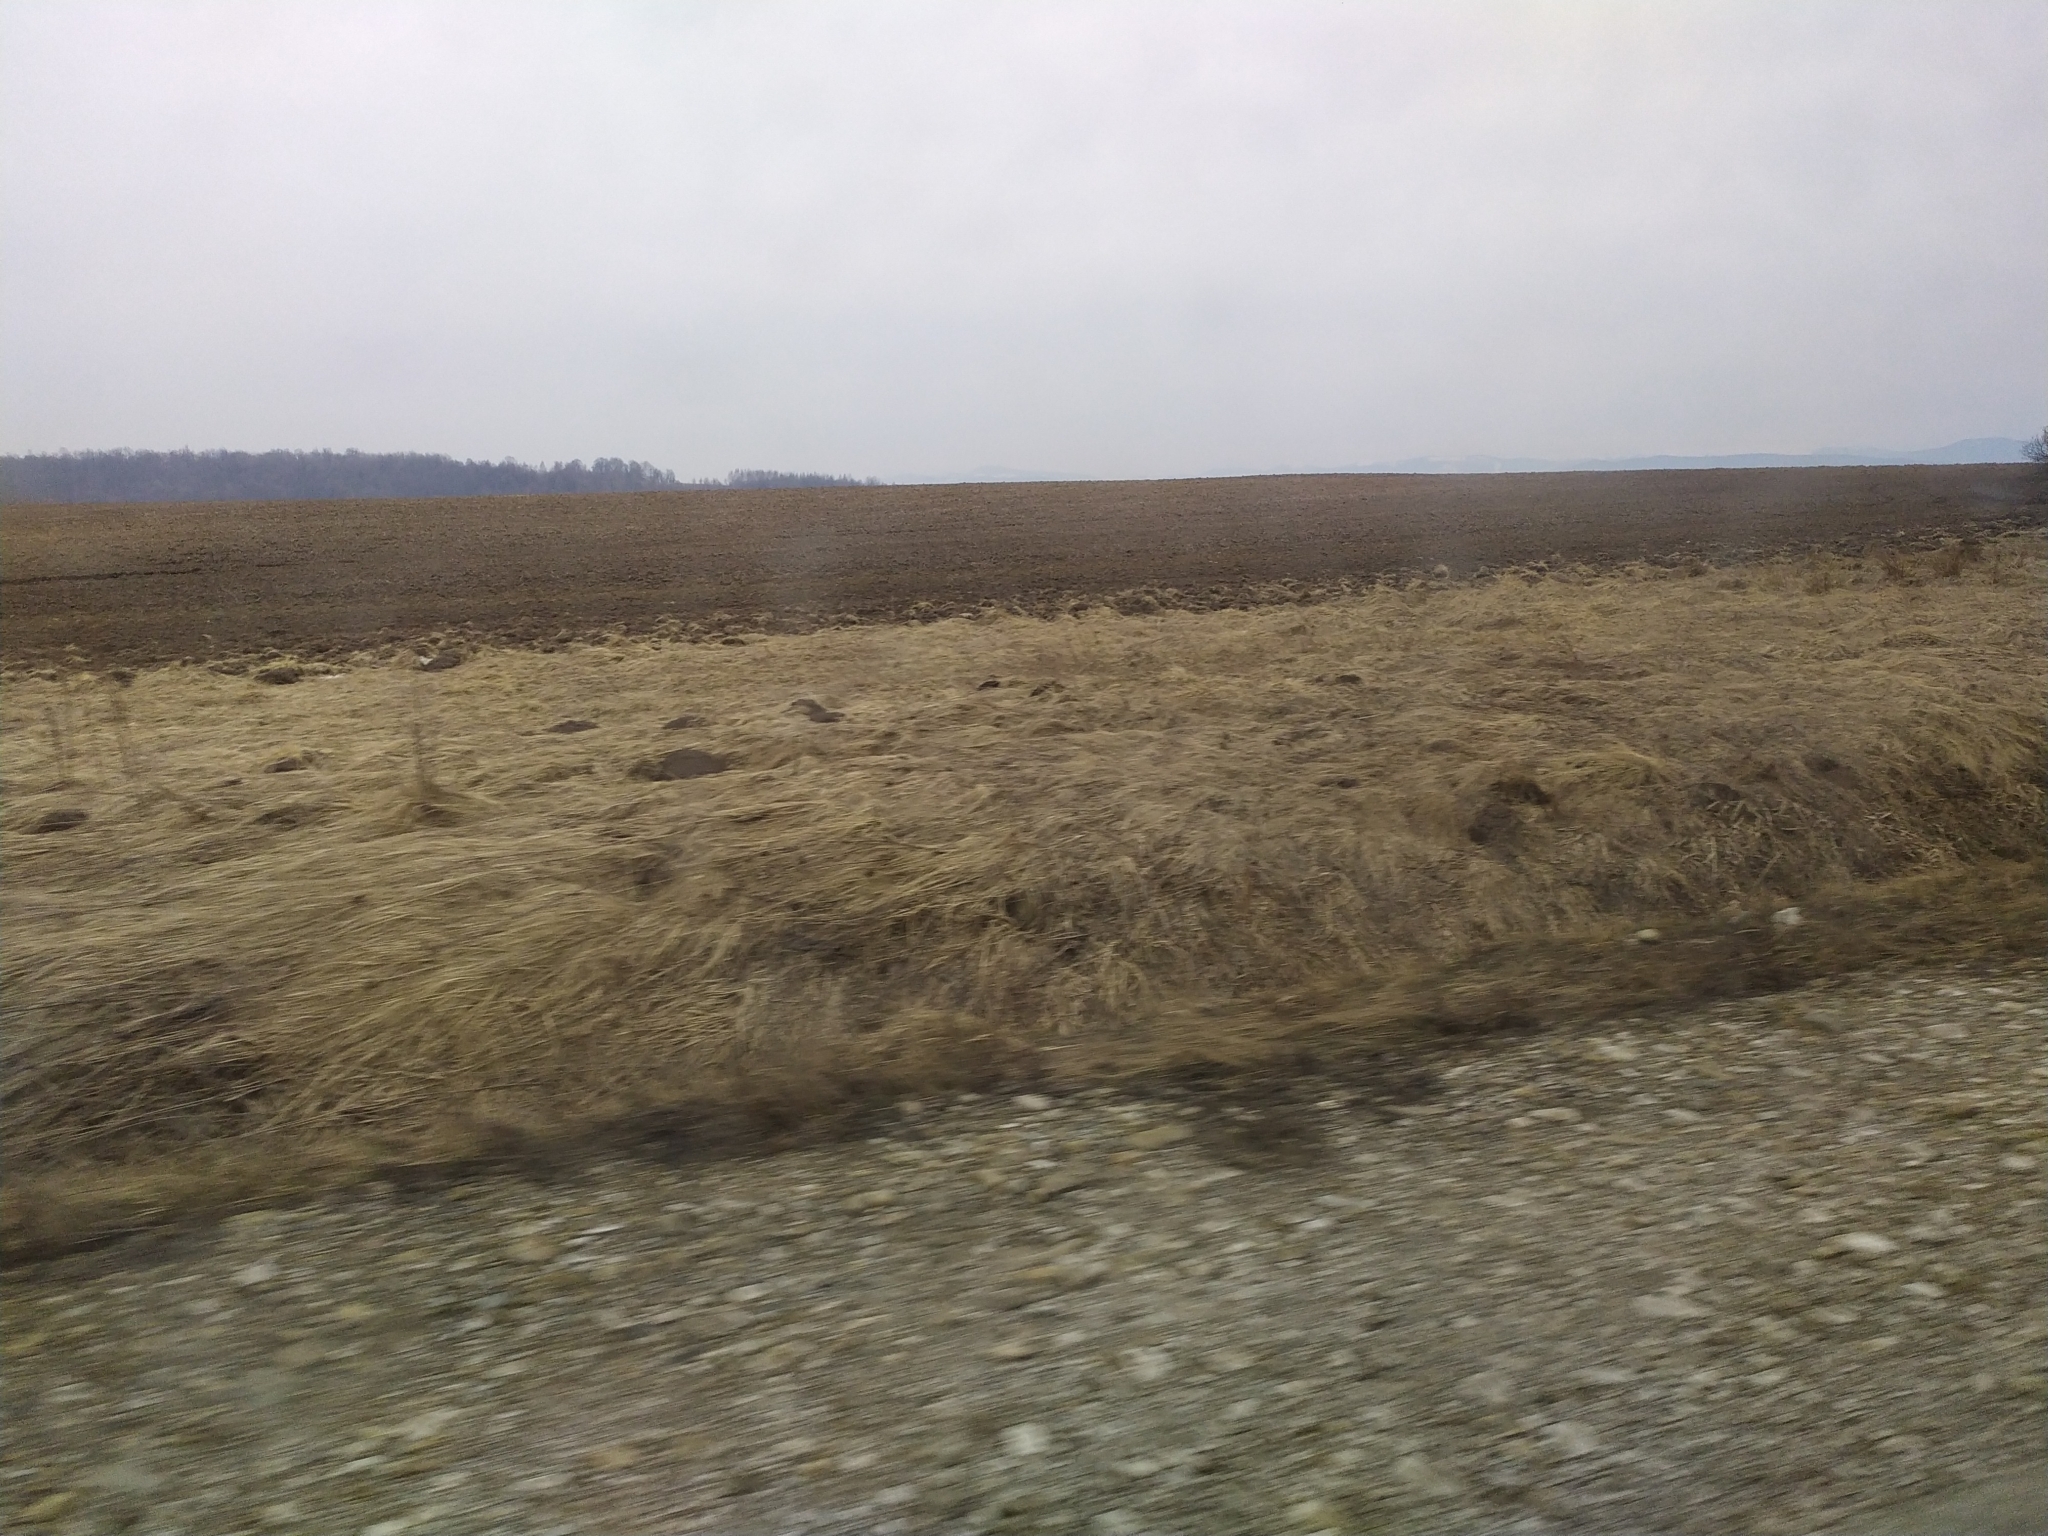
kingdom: Animalia
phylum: Chordata
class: Mammalia
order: Soricomorpha
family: Talpidae
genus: Talpa
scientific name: Talpa europaea
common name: European mole
